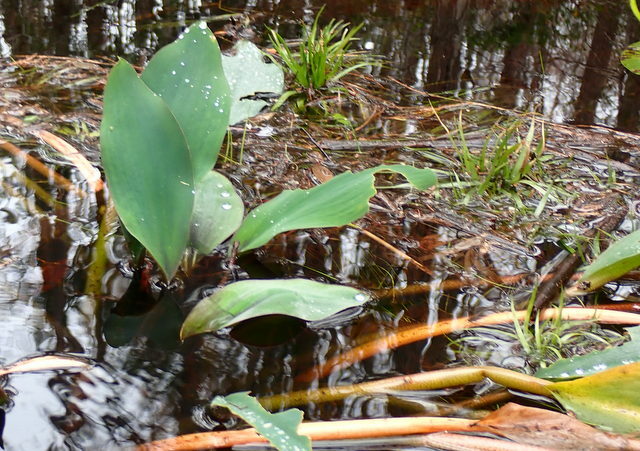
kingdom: Plantae
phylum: Tracheophyta
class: Liliopsida
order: Alismatales
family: Araceae
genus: Orontium
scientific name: Orontium aquaticum
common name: Golden-club
